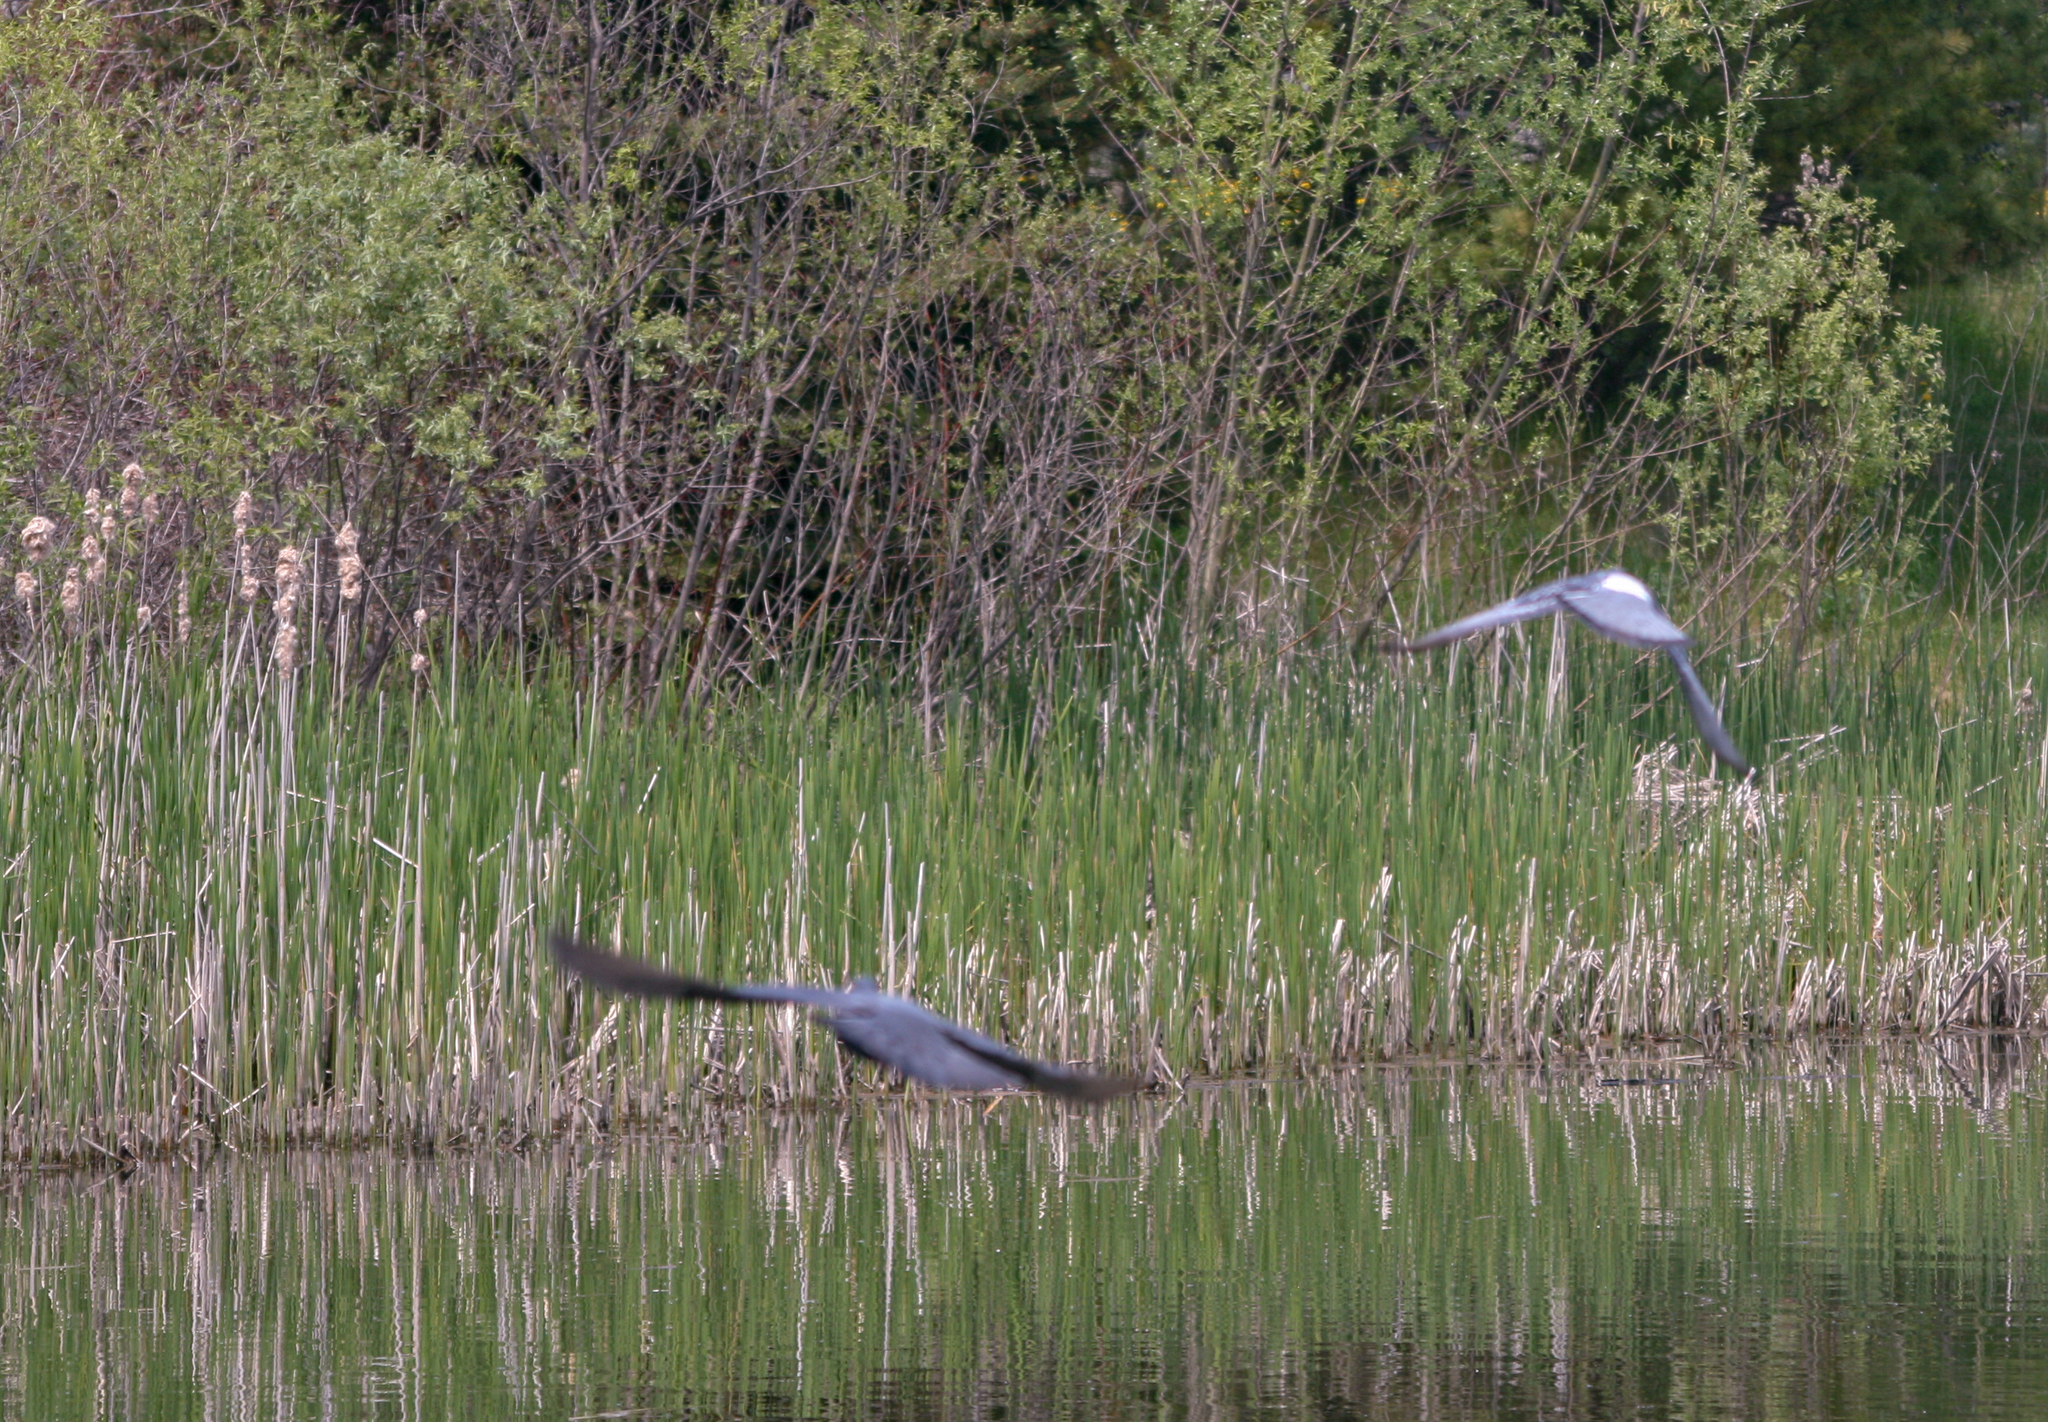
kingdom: Animalia
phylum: Chordata
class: Aves
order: Columbiformes
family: Columbidae
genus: Columba
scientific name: Columba livia
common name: Rock pigeon
